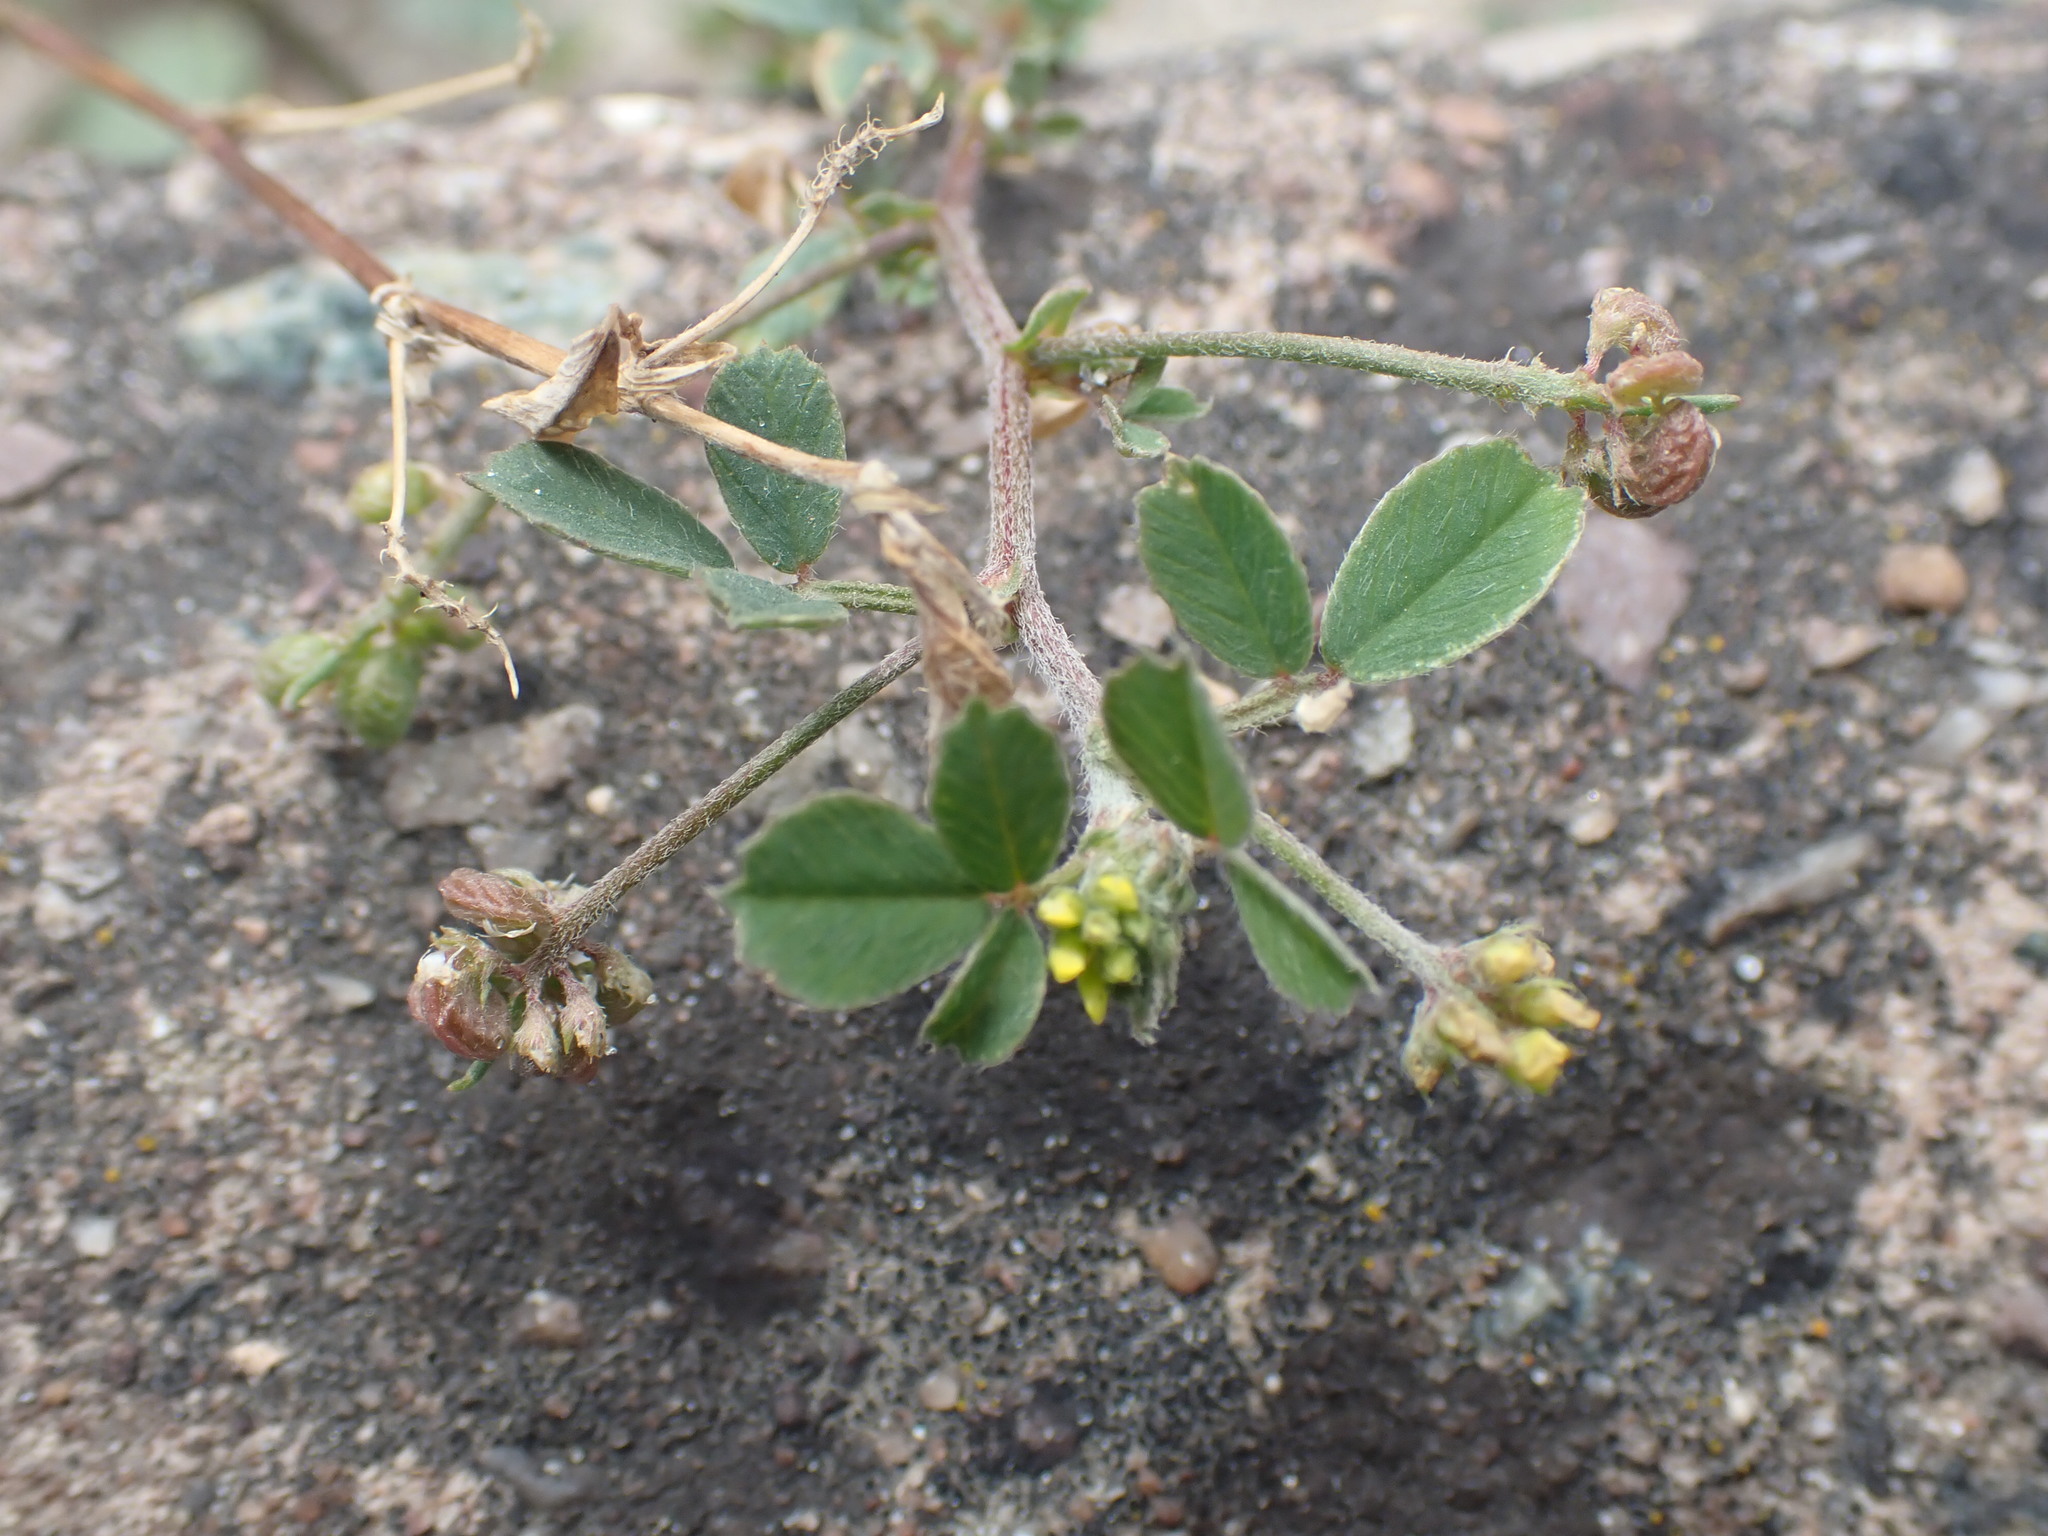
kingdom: Plantae
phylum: Tracheophyta
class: Magnoliopsida
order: Fabales
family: Fabaceae
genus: Medicago
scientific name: Medicago lupulina
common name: Black medick
